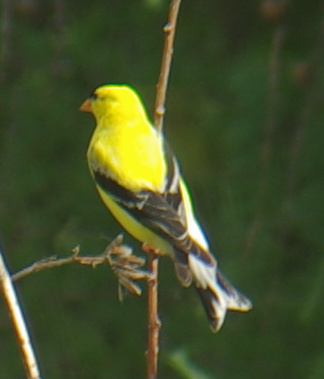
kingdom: Animalia
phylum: Chordata
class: Aves
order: Passeriformes
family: Fringillidae
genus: Spinus
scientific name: Spinus tristis
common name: American goldfinch
